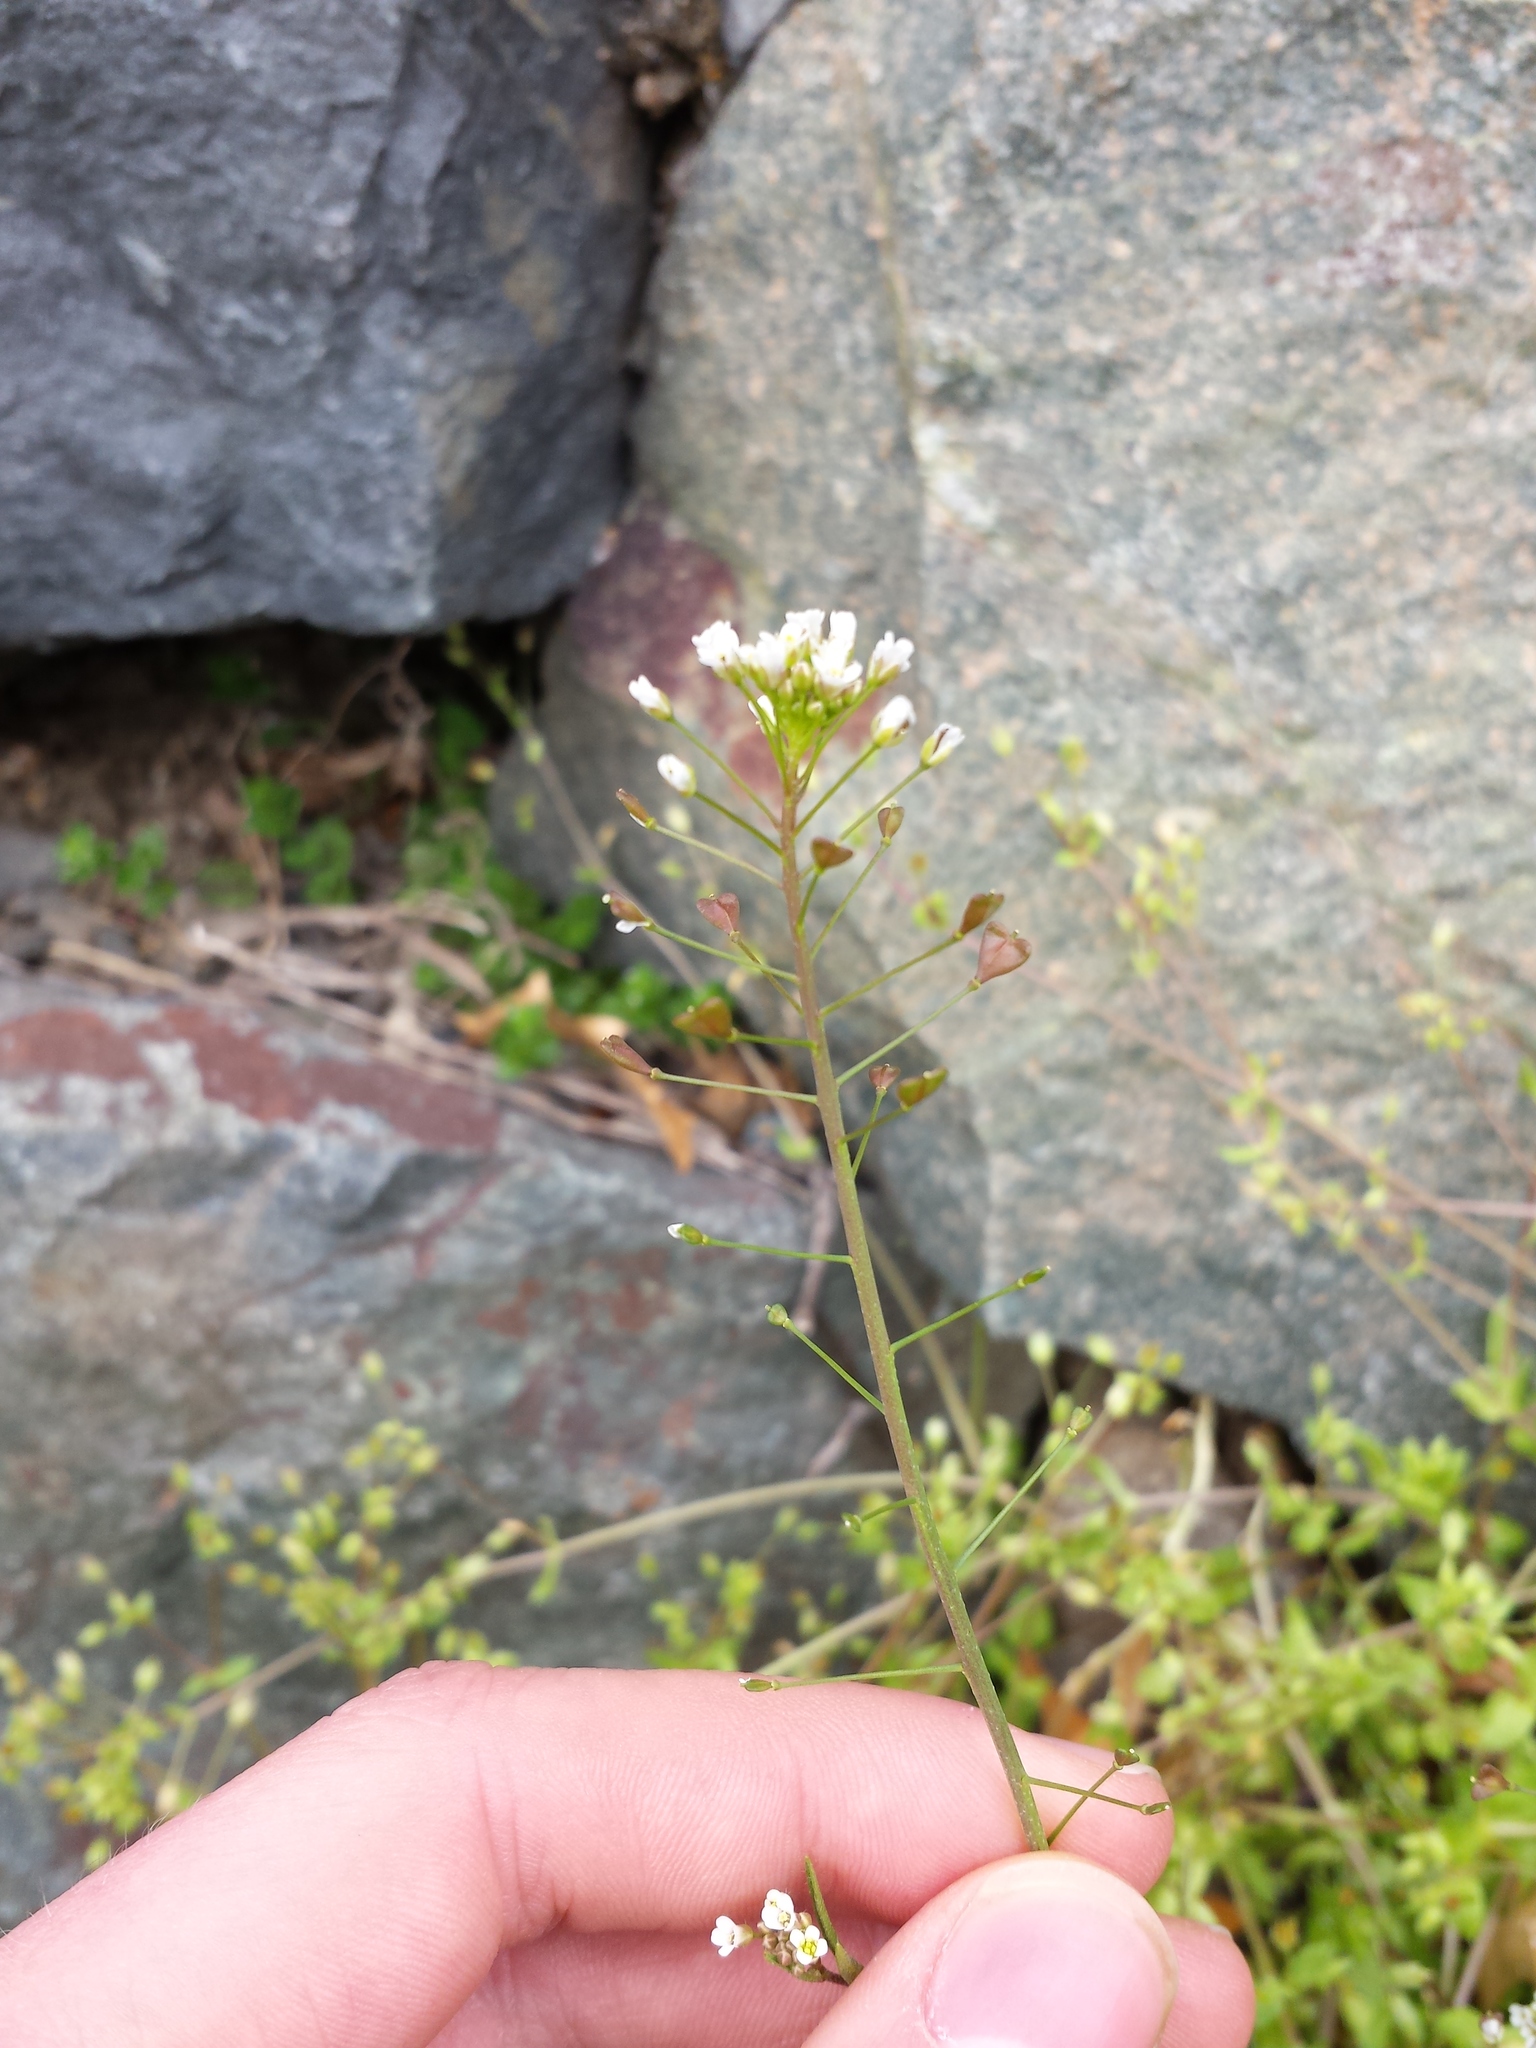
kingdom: Plantae
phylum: Tracheophyta
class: Magnoliopsida
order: Brassicales
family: Brassicaceae
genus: Capsella
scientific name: Capsella bursa-pastoris
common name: Shepherd's purse
